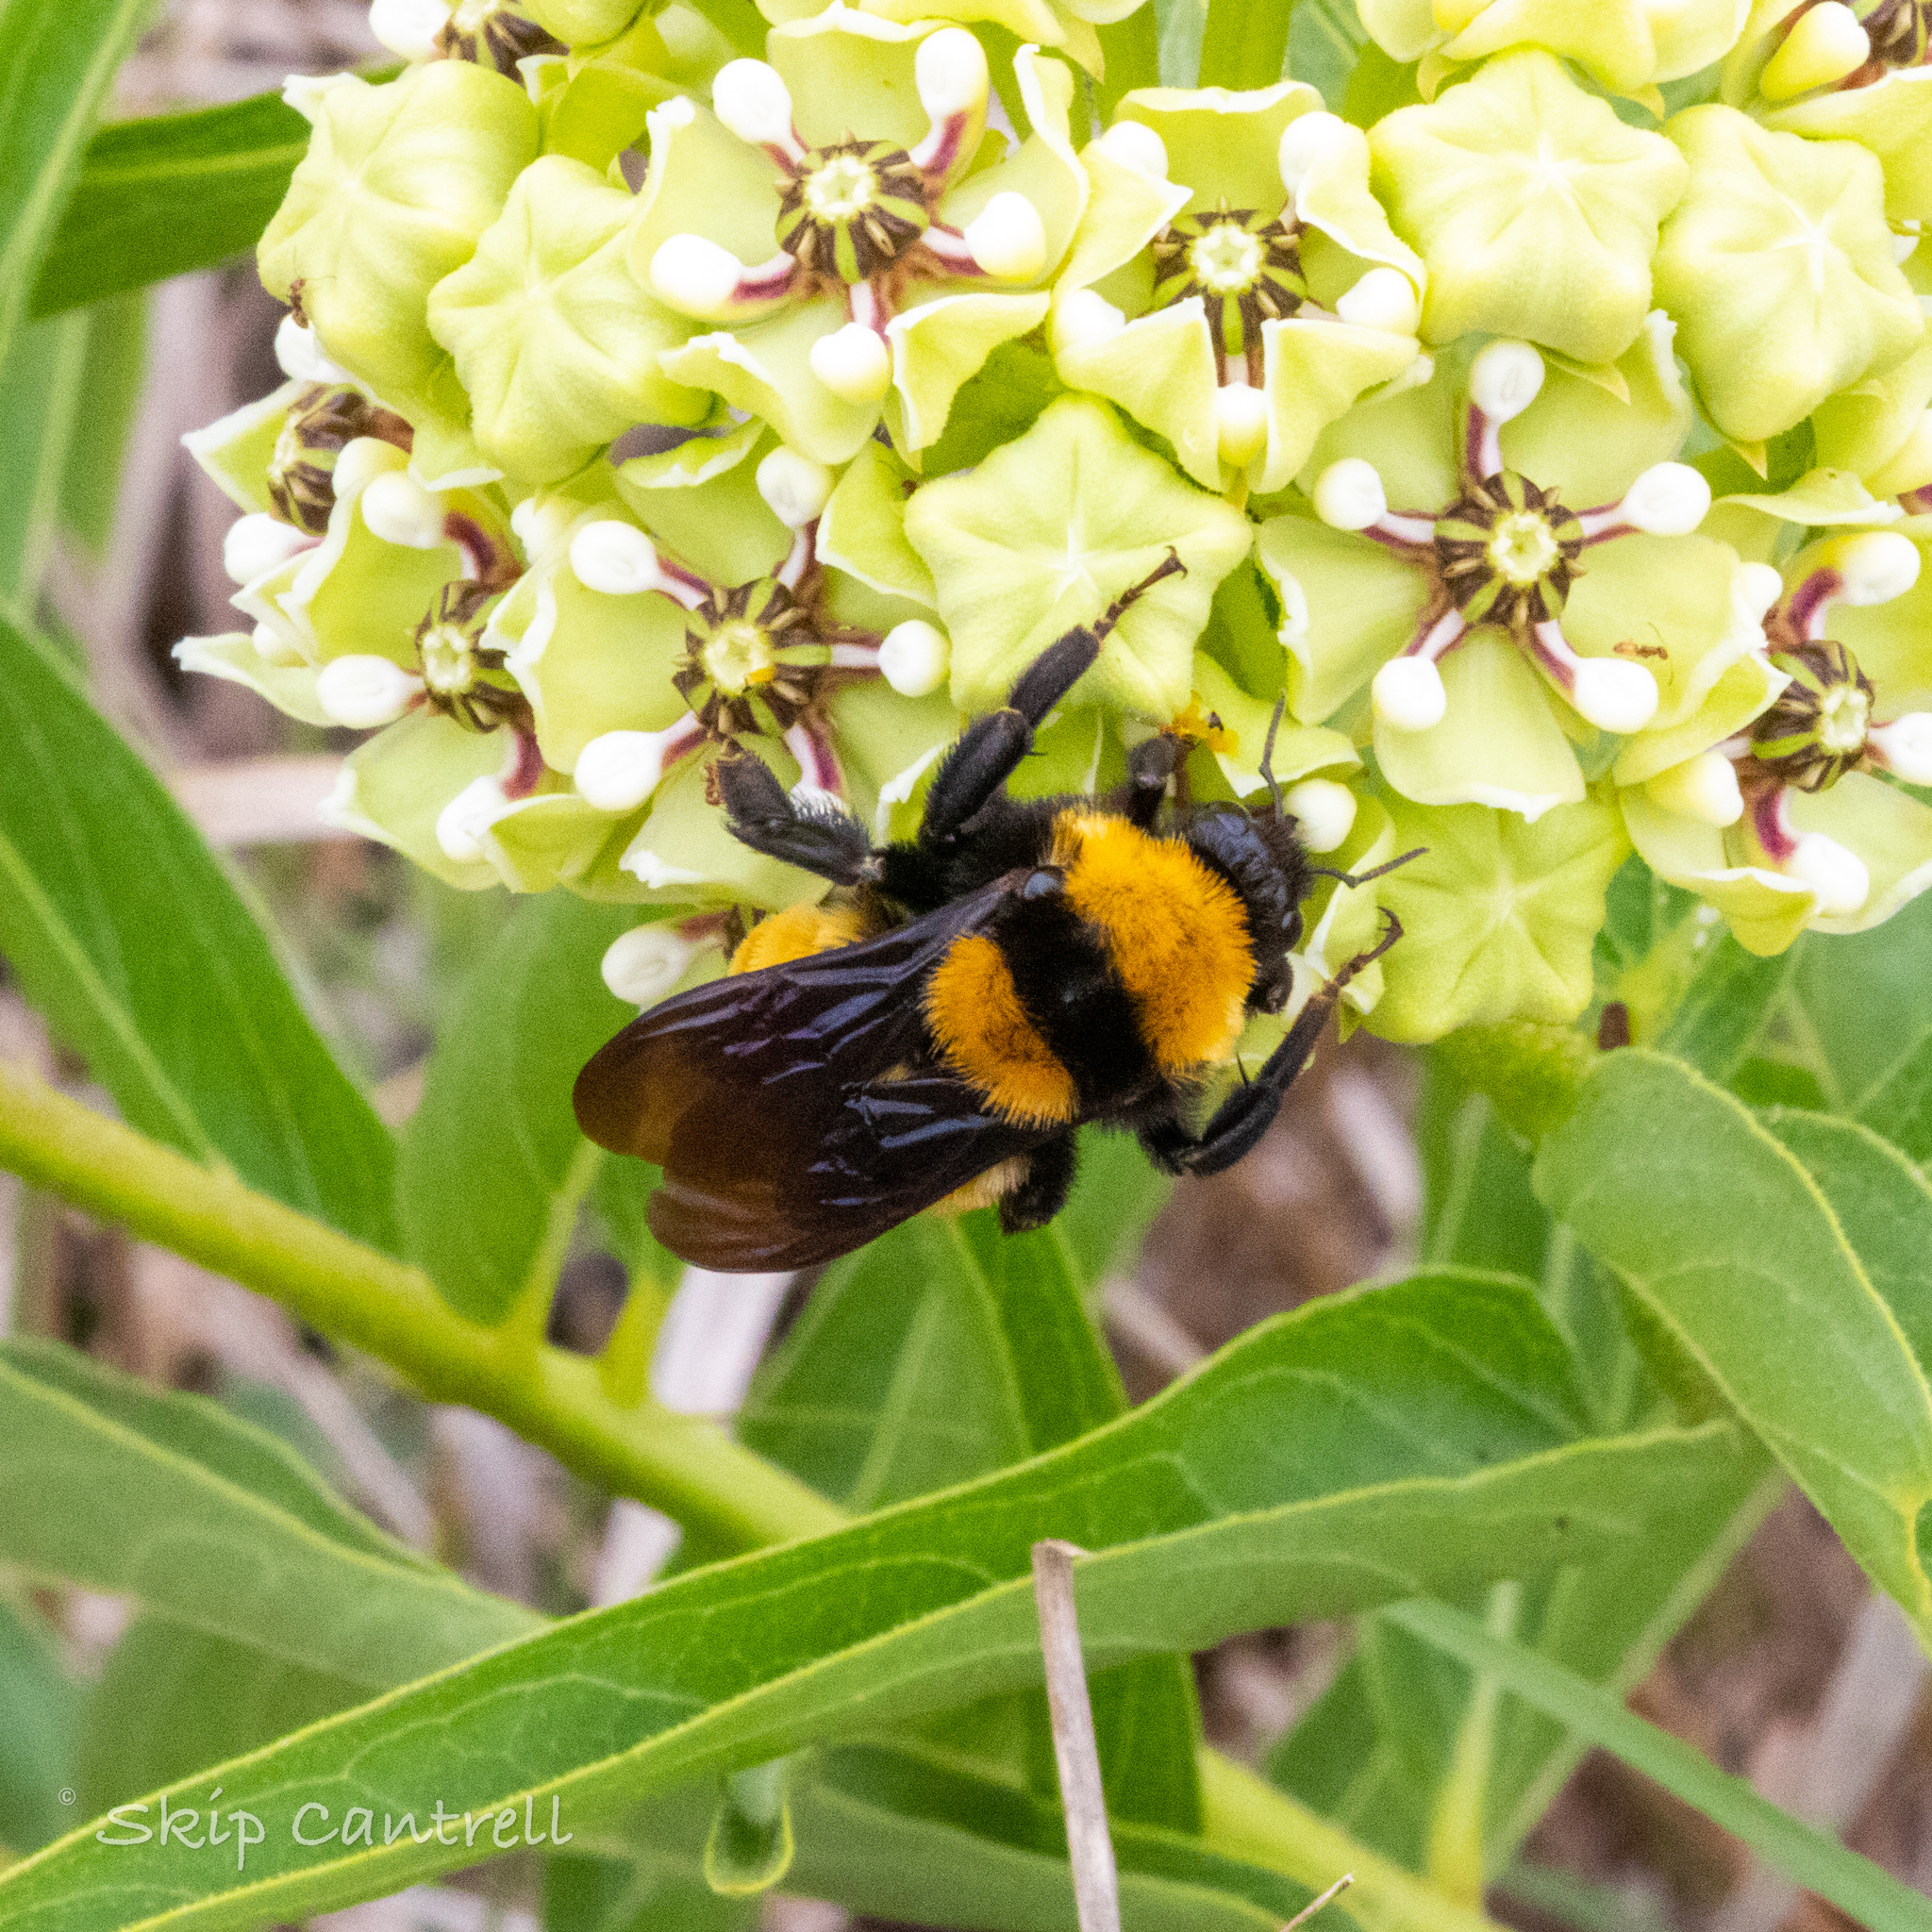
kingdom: Animalia
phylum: Arthropoda
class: Insecta
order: Hymenoptera
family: Apidae
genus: Bombus
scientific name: Bombus sonorus
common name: Sonoran bumble bee
